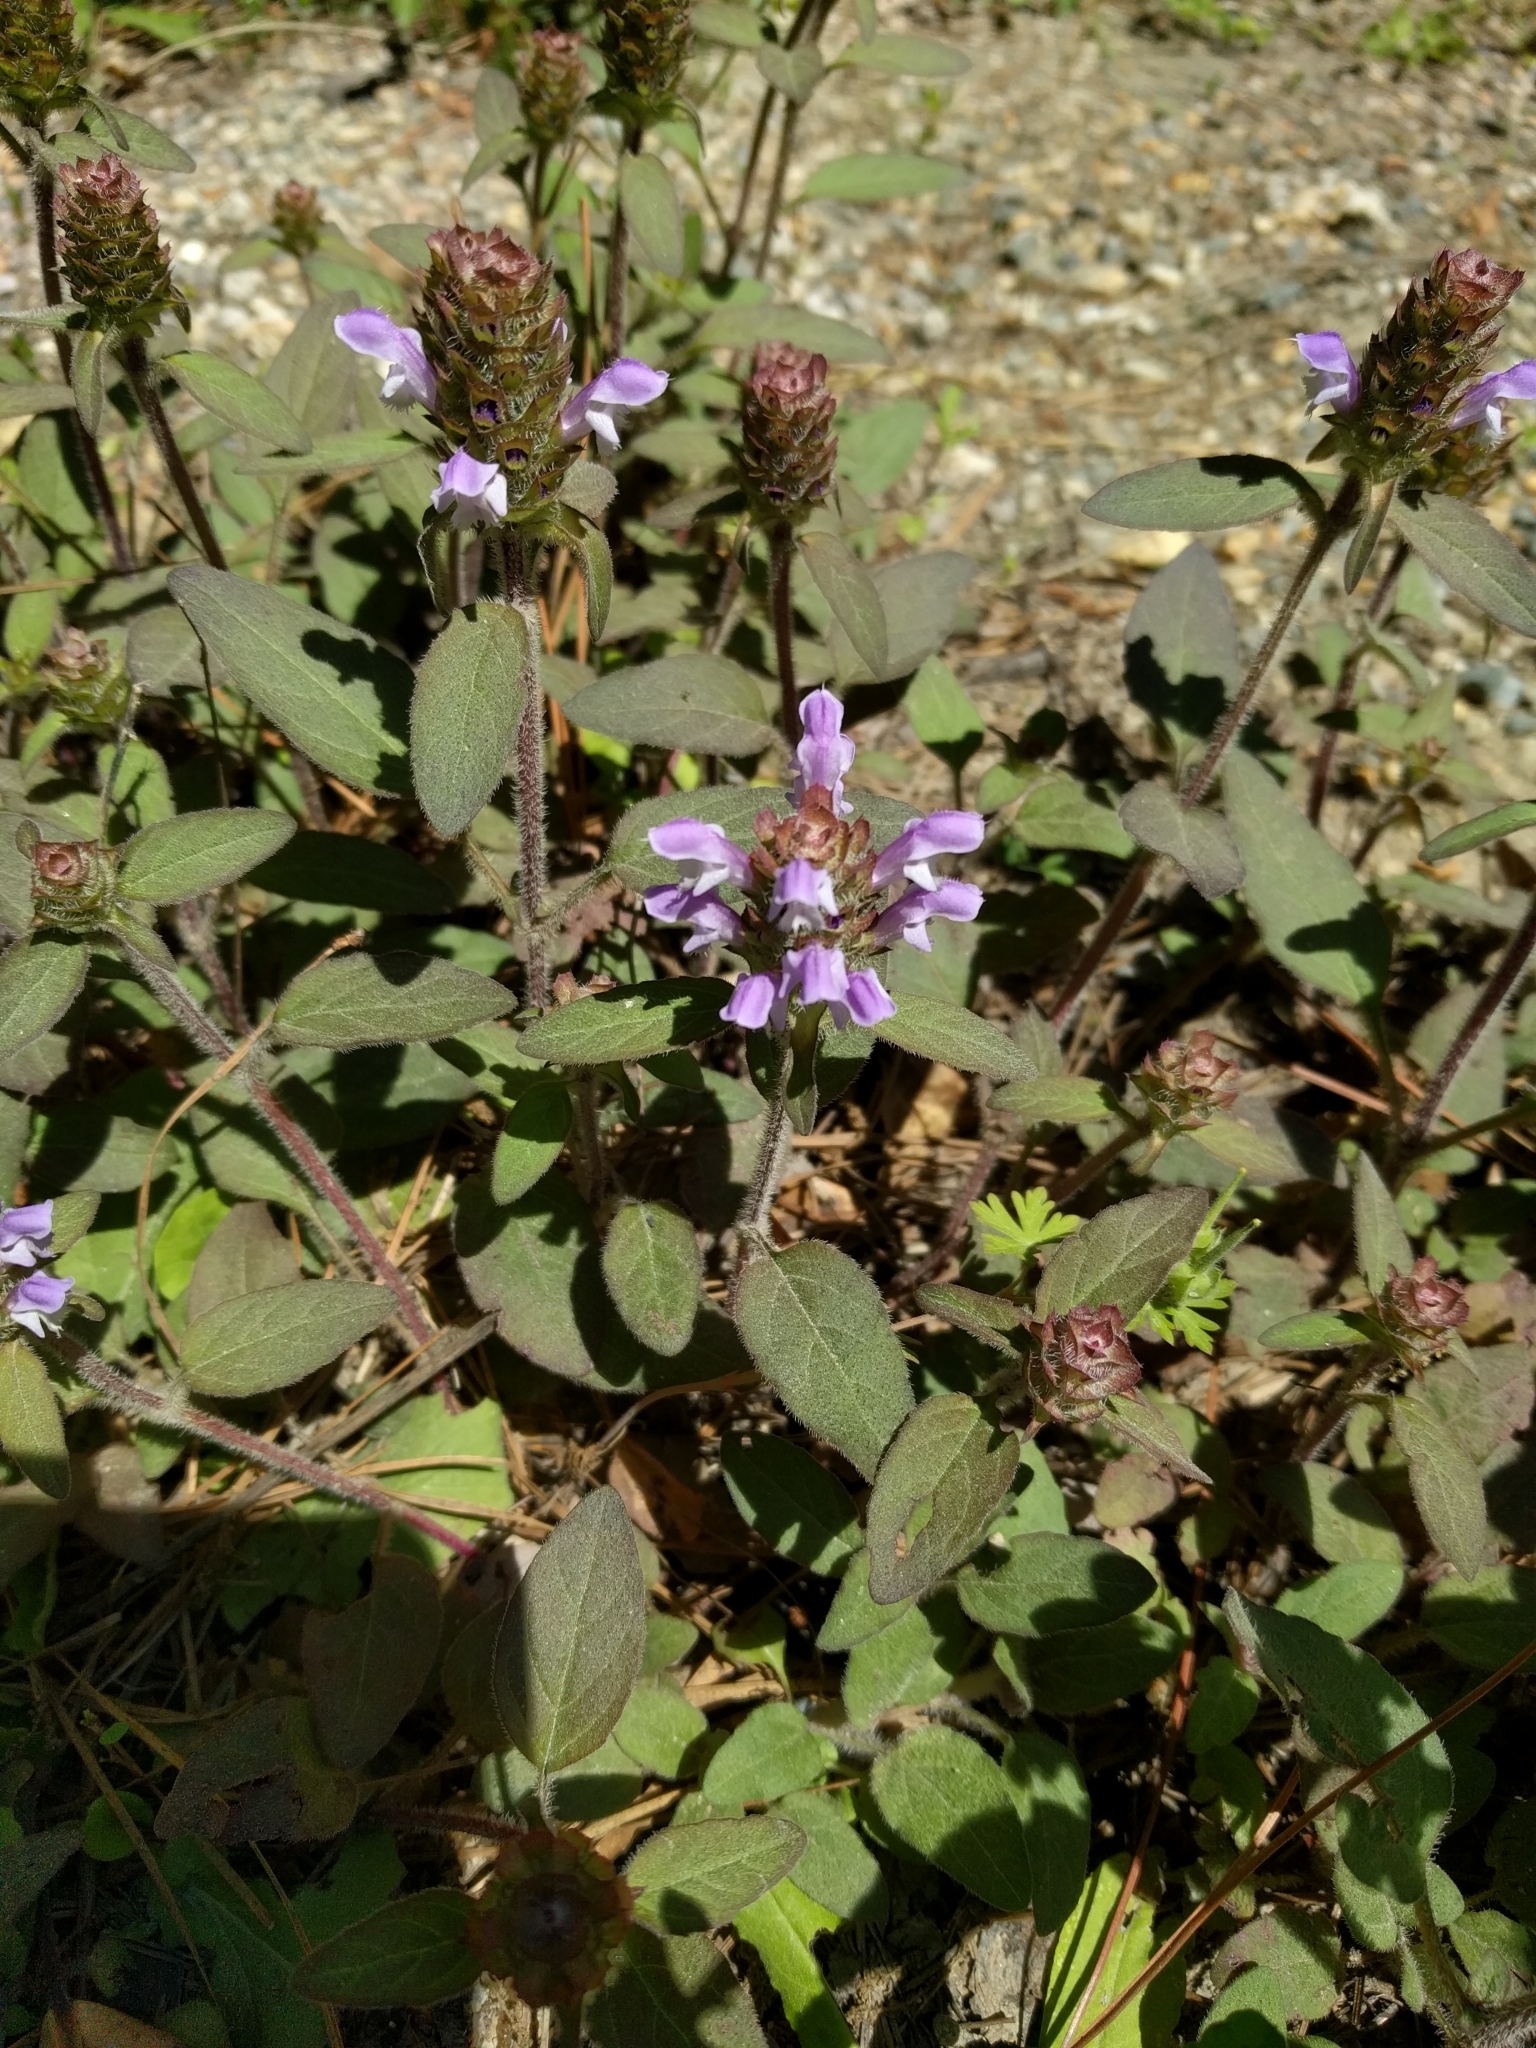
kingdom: Plantae
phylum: Tracheophyta
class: Magnoliopsida
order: Lamiales
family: Lamiaceae
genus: Prunella
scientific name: Prunella vulgaris
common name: Heal-all
